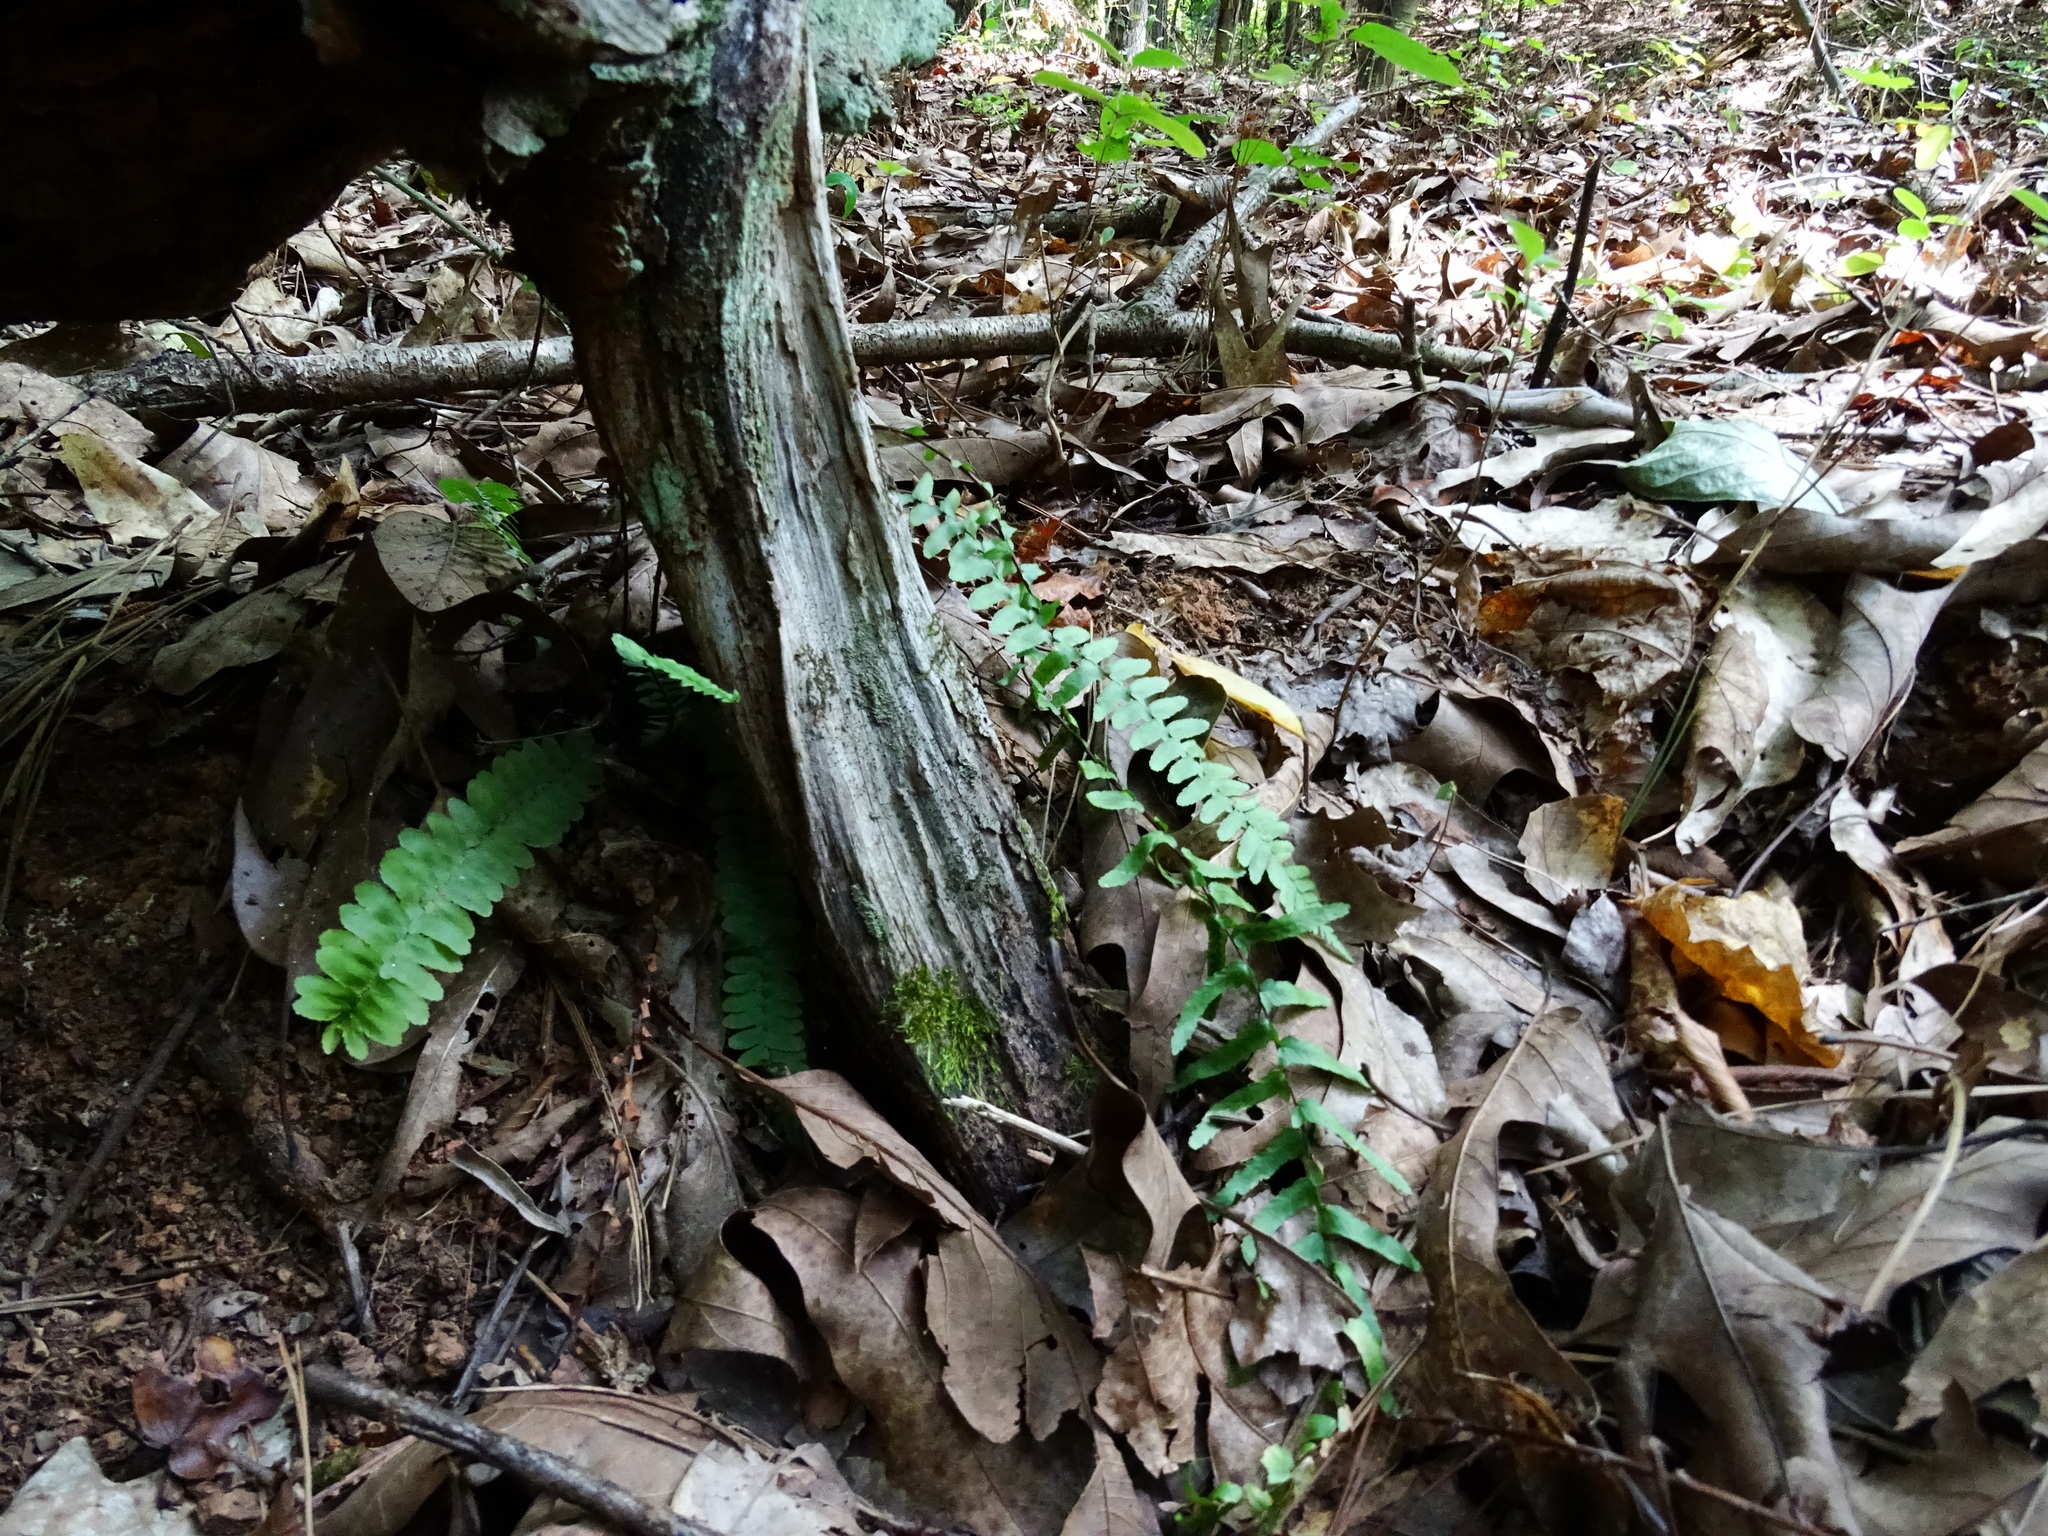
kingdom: Plantae
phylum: Tracheophyta
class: Polypodiopsida
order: Polypodiales
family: Aspleniaceae
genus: Asplenium
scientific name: Asplenium platyneuron
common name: Ebony spleenwort
